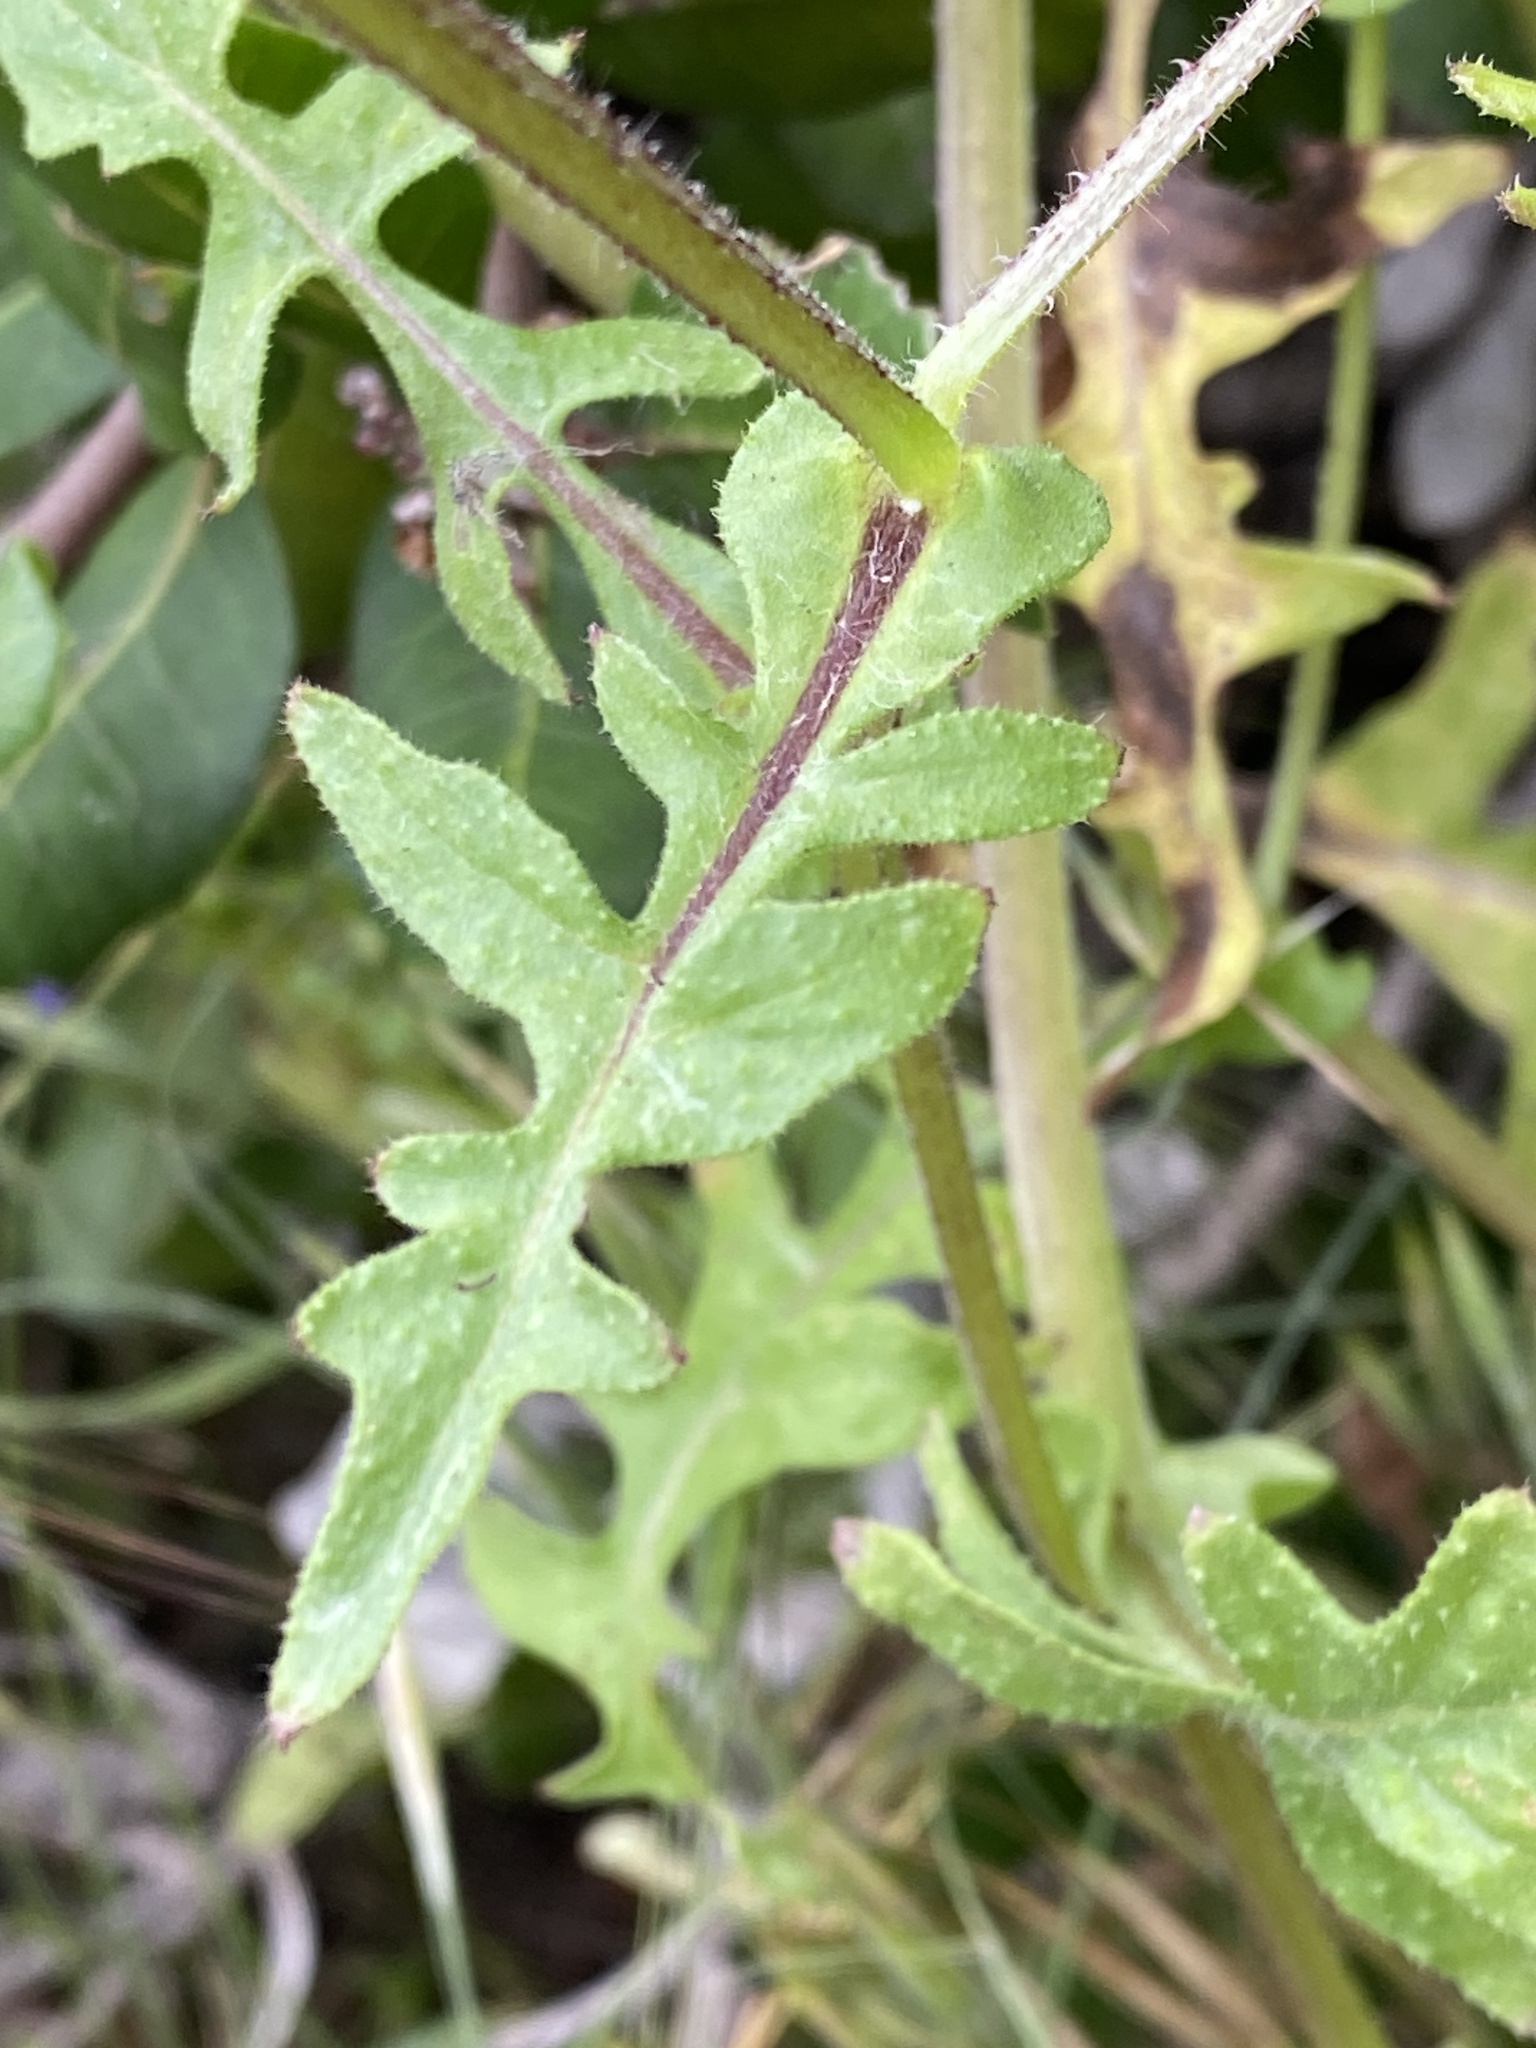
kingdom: Plantae
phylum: Tracheophyta
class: Magnoliopsida
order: Boraginales
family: Hydrophyllaceae
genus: Pholistoma
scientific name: Pholistoma auritum
